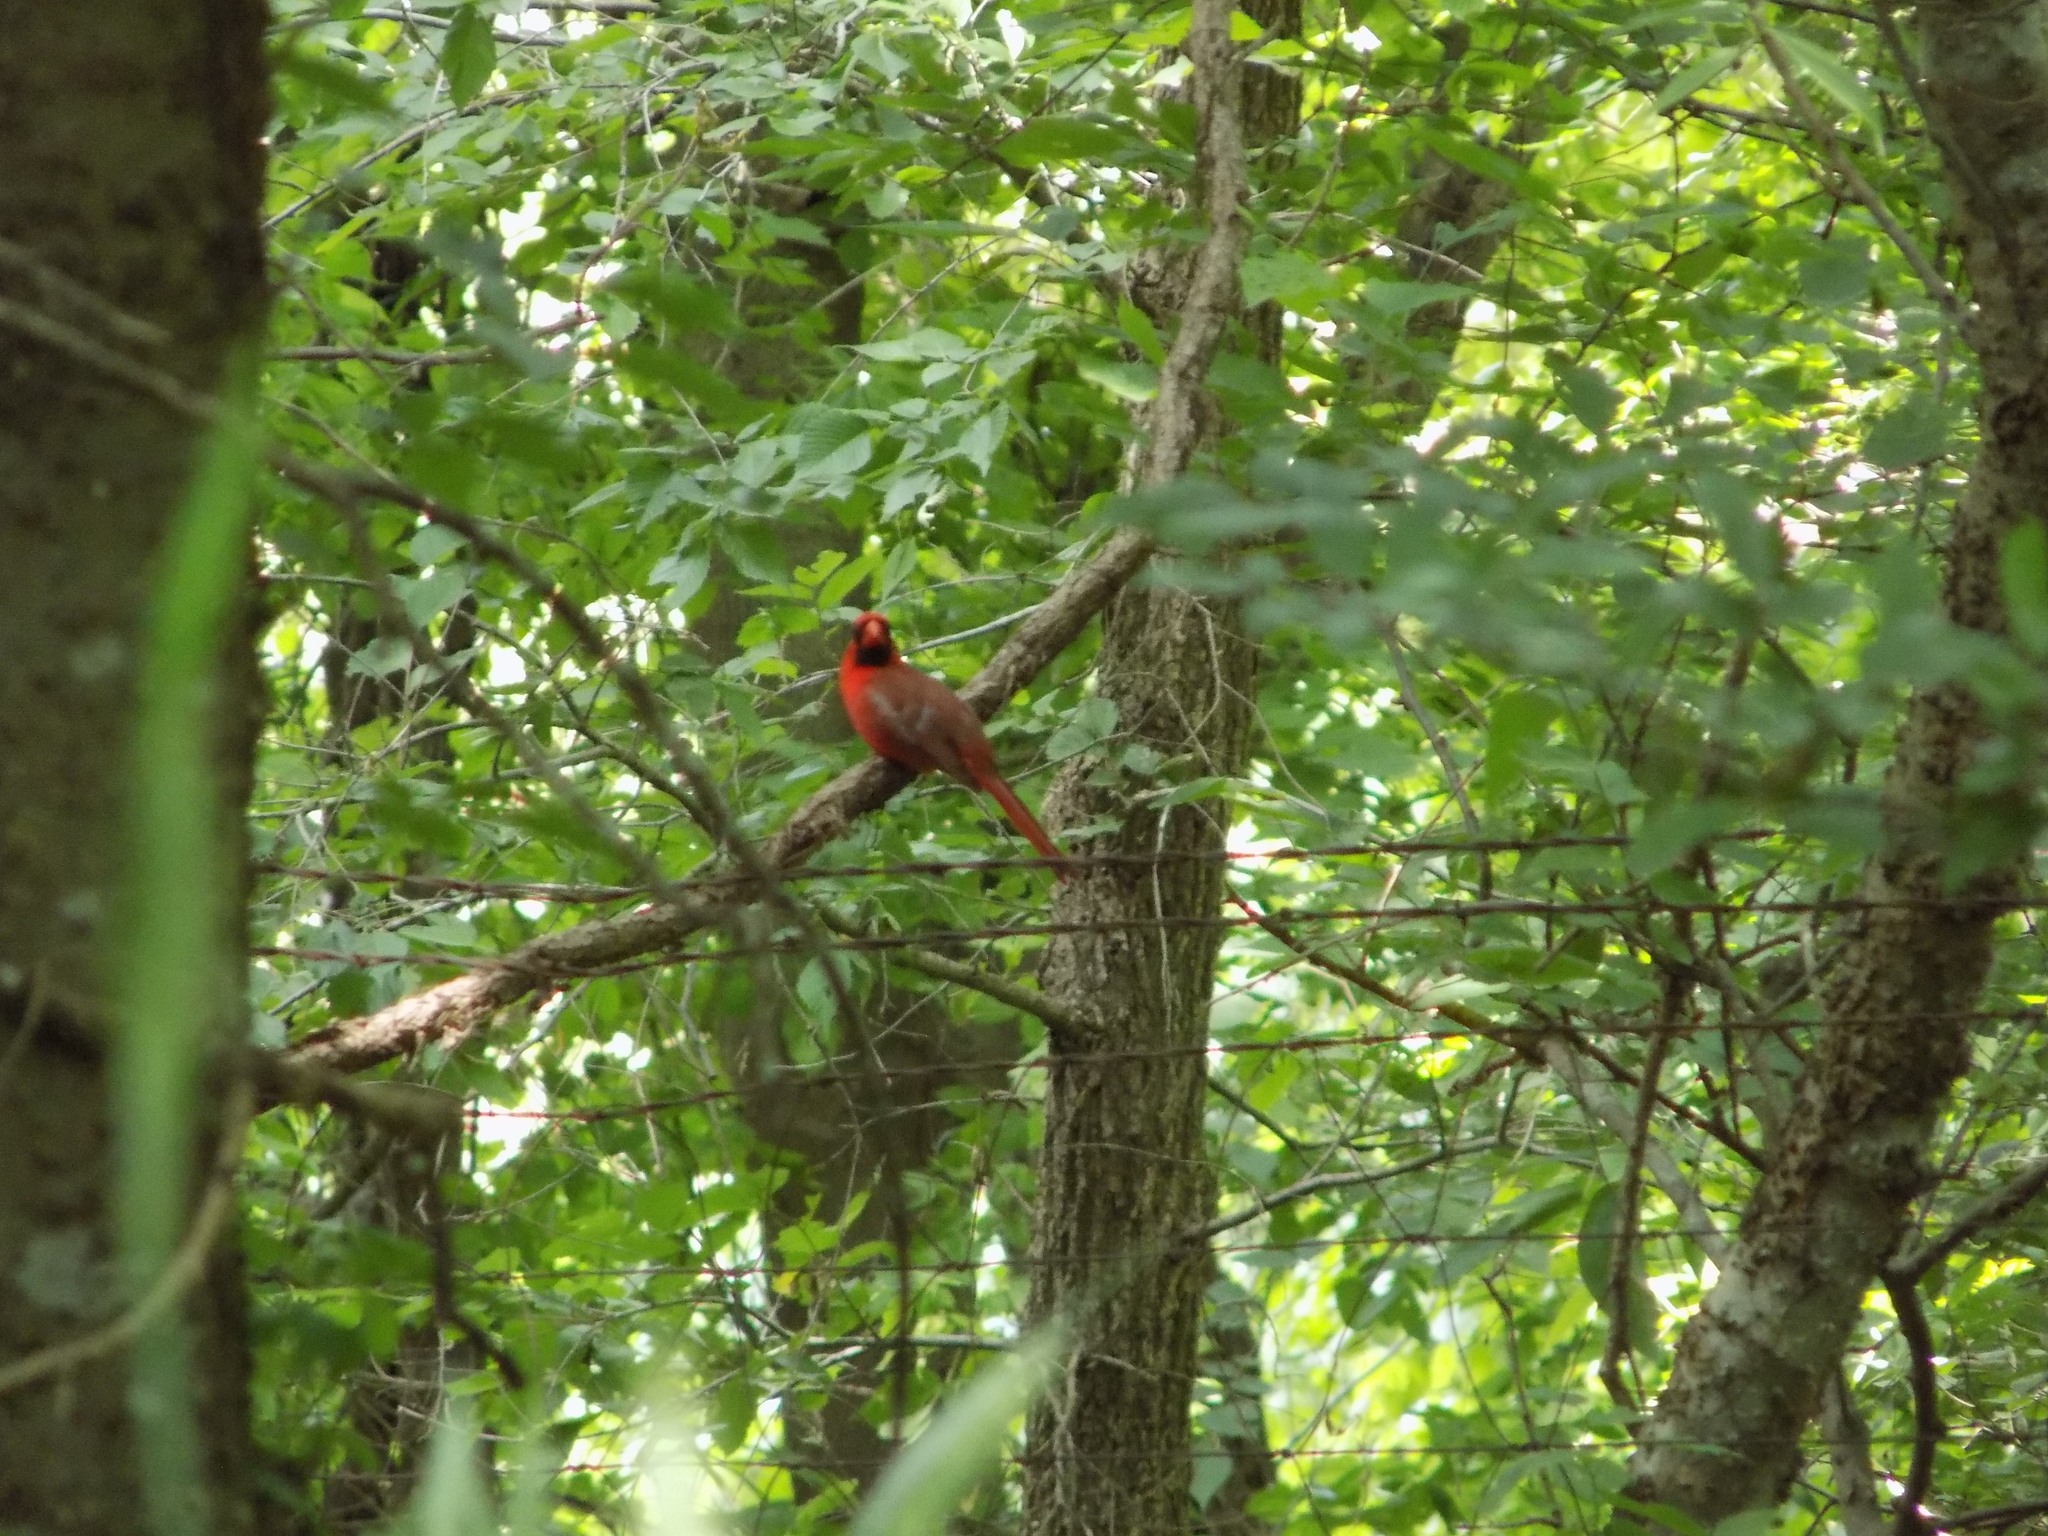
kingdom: Animalia
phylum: Chordata
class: Aves
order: Passeriformes
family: Cardinalidae
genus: Cardinalis
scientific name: Cardinalis cardinalis
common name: Northern cardinal
